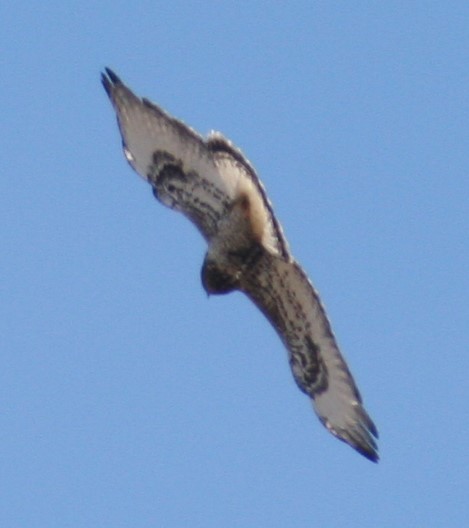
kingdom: Animalia
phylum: Chordata
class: Aves
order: Accipitriformes
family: Accipitridae
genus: Buteo
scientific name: Buteo lagopus
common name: Rough-legged buzzard
